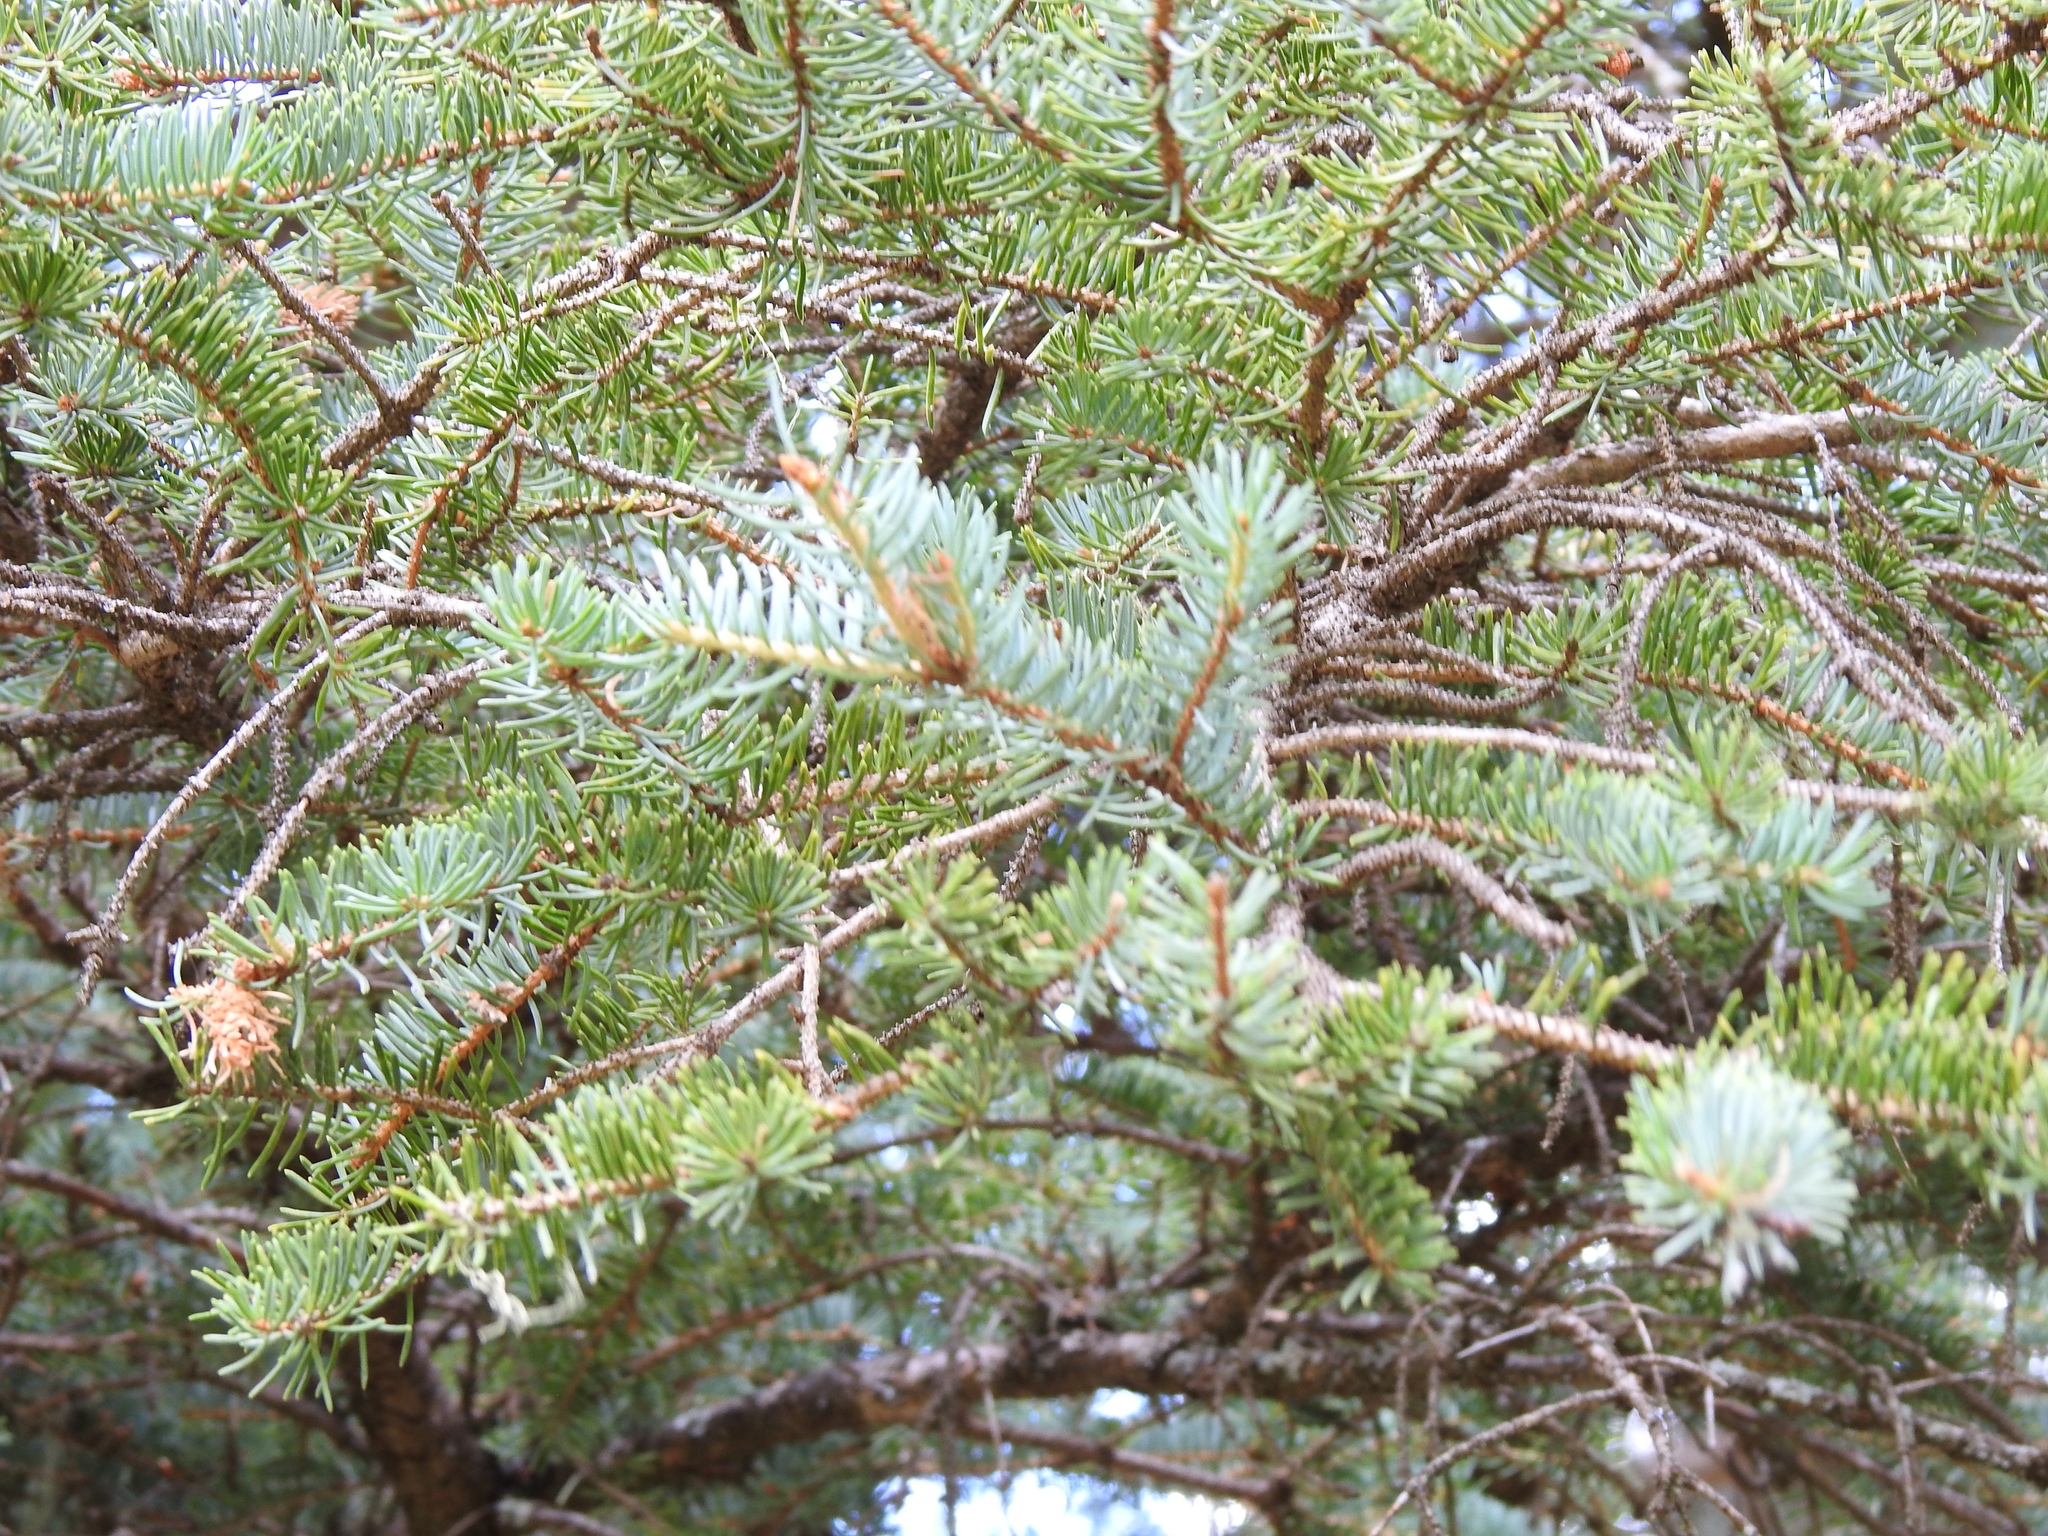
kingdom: Plantae
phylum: Tracheophyta
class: Pinopsida
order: Pinales
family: Pinaceae
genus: Picea
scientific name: Picea engelmannii
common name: Engelmann spruce
